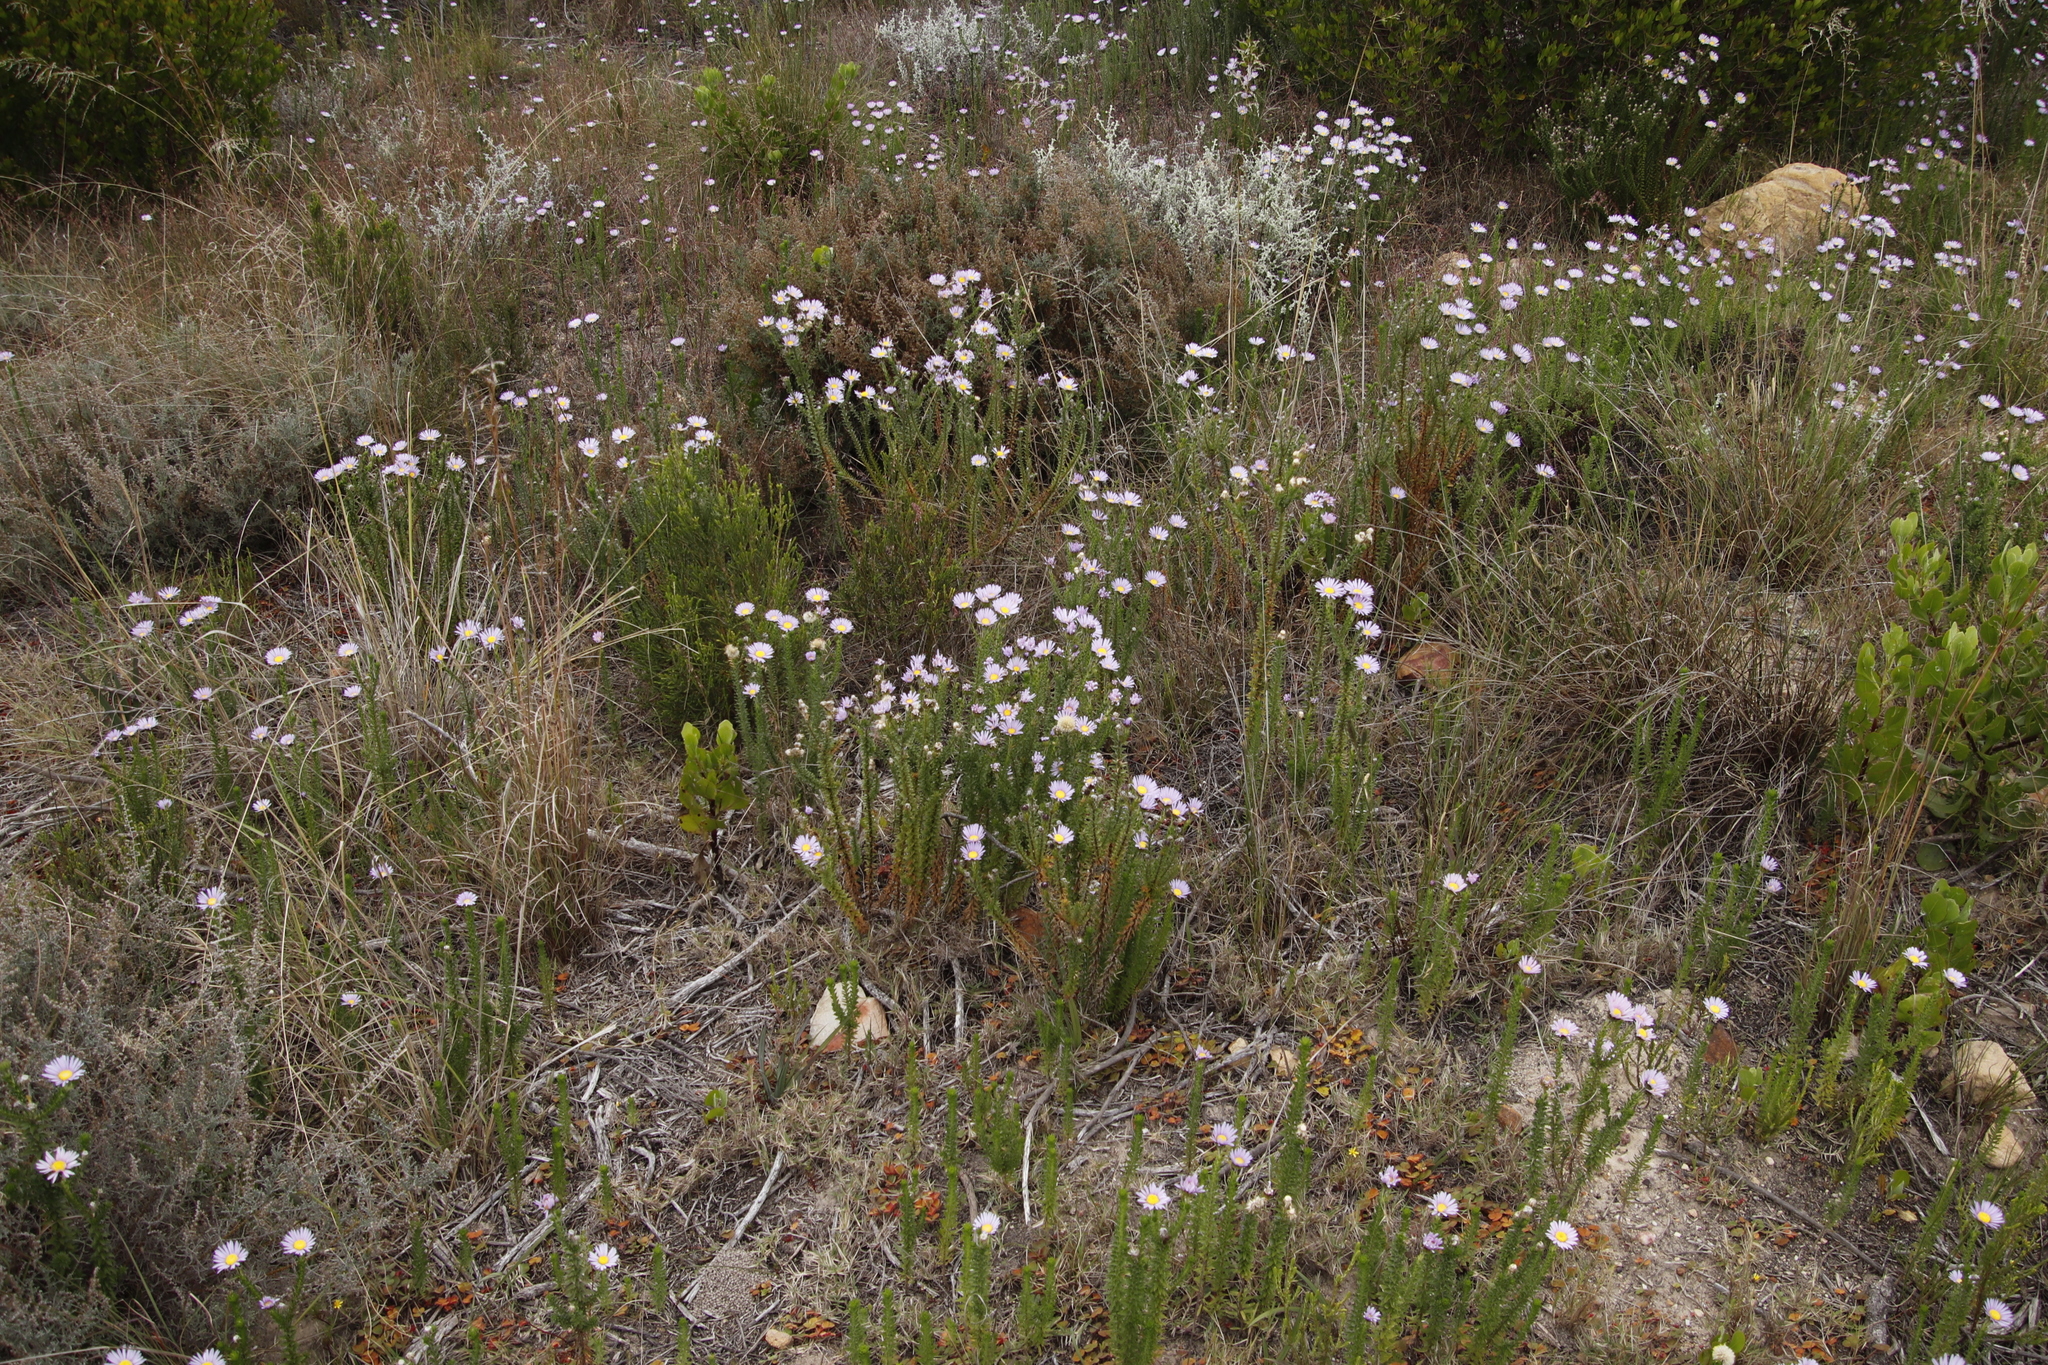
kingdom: Plantae
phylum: Tracheophyta
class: Magnoliopsida
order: Asterales
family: Asteraceae
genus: Felicia
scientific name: Felicia echinata
